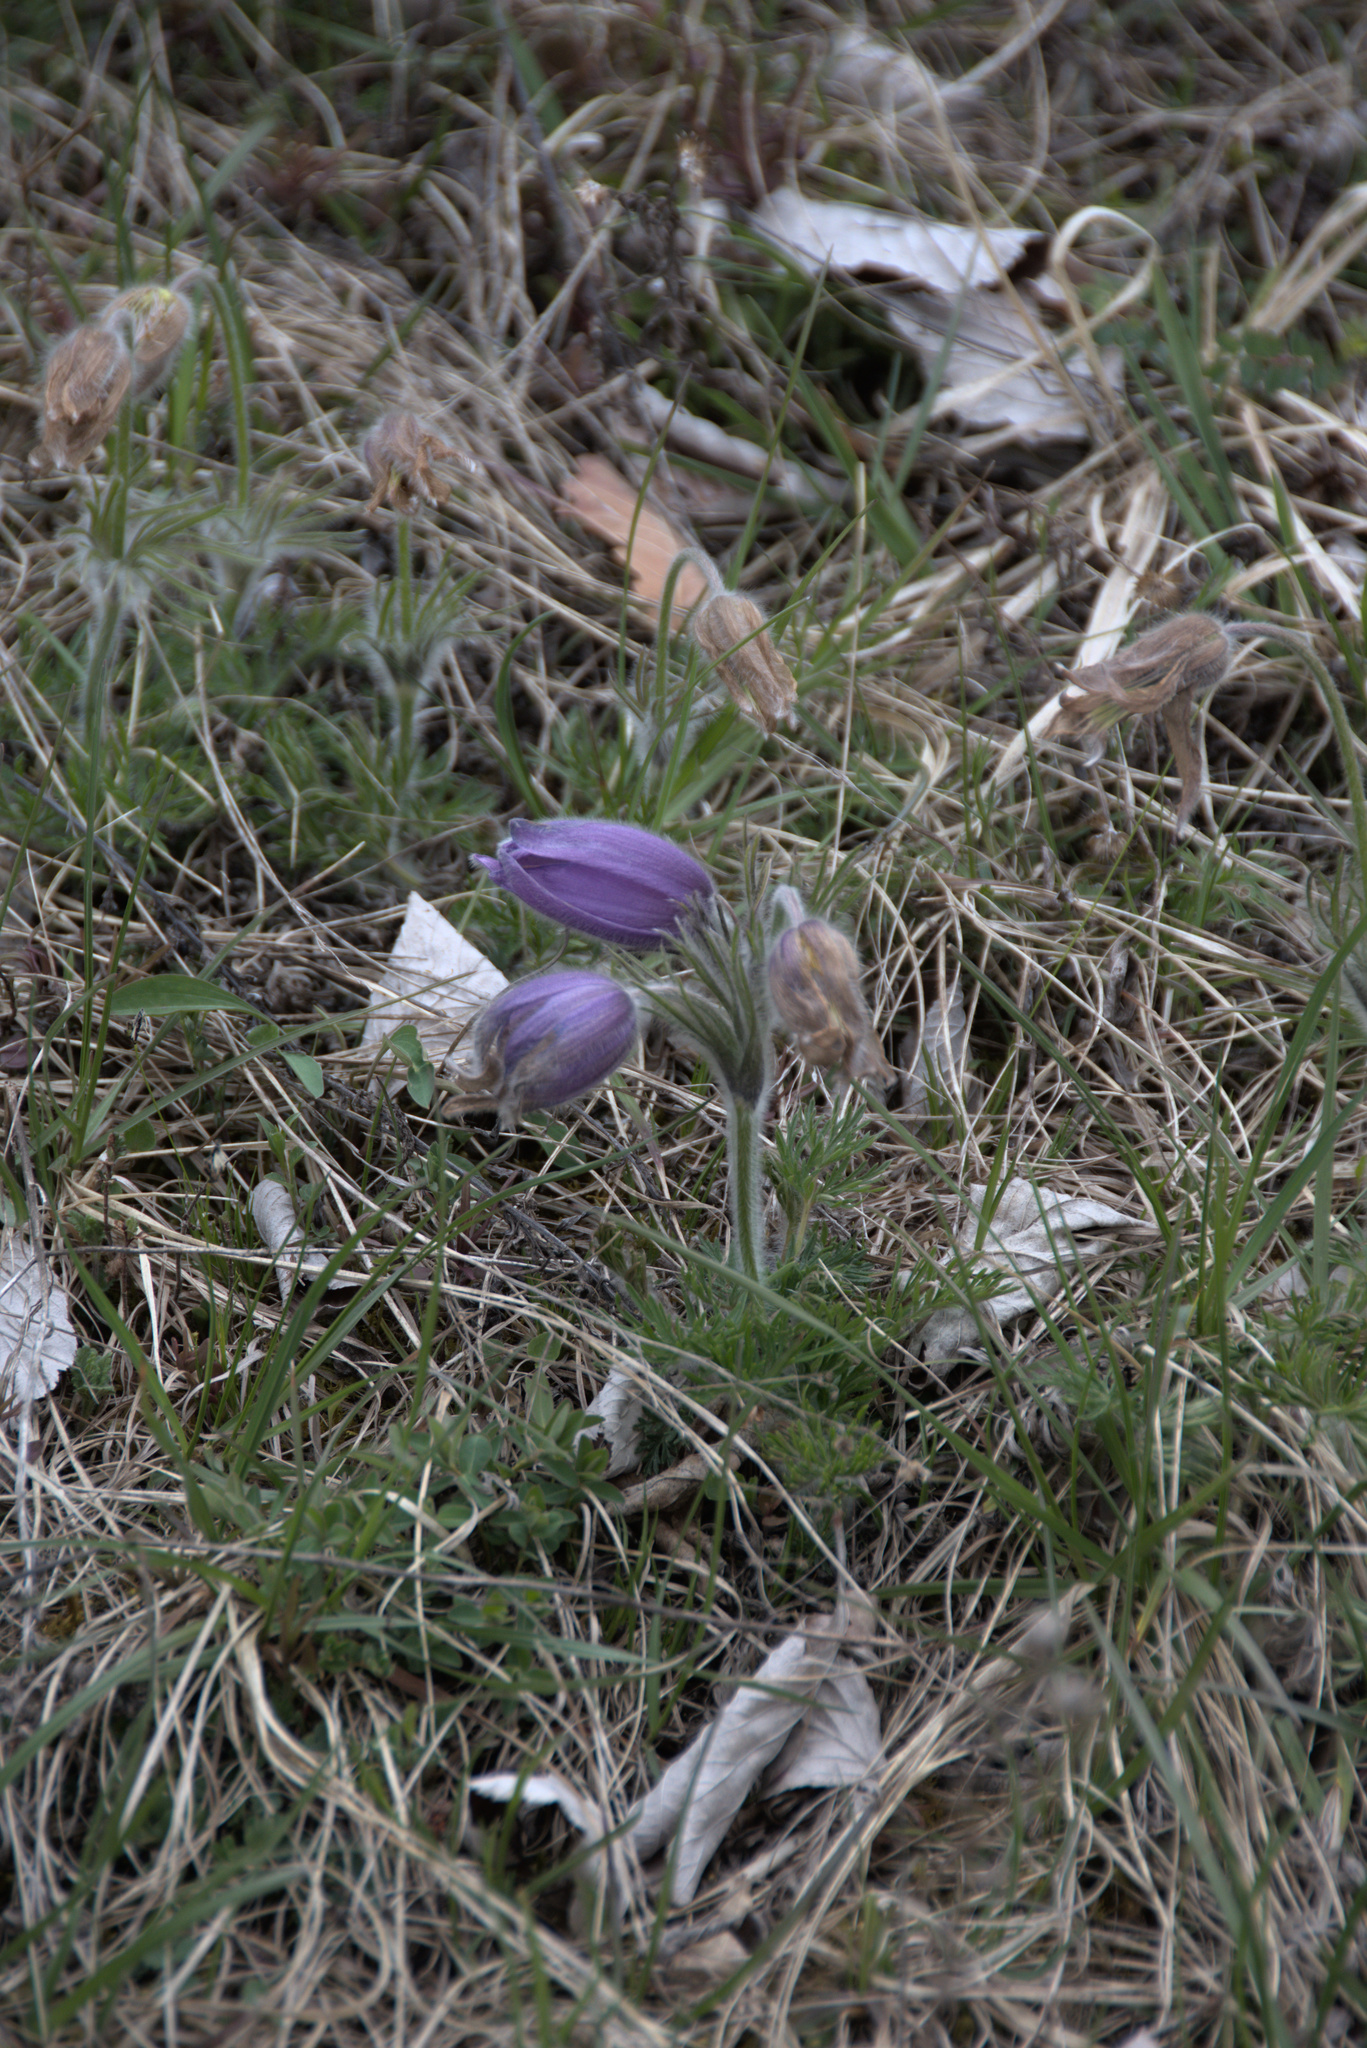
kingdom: Plantae
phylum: Tracheophyta
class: Magnoliopsida
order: Ranunculales
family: Ranunculaceae
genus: Pulsatilla
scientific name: Pulsatilla vulgaris
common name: Pasqueflower
